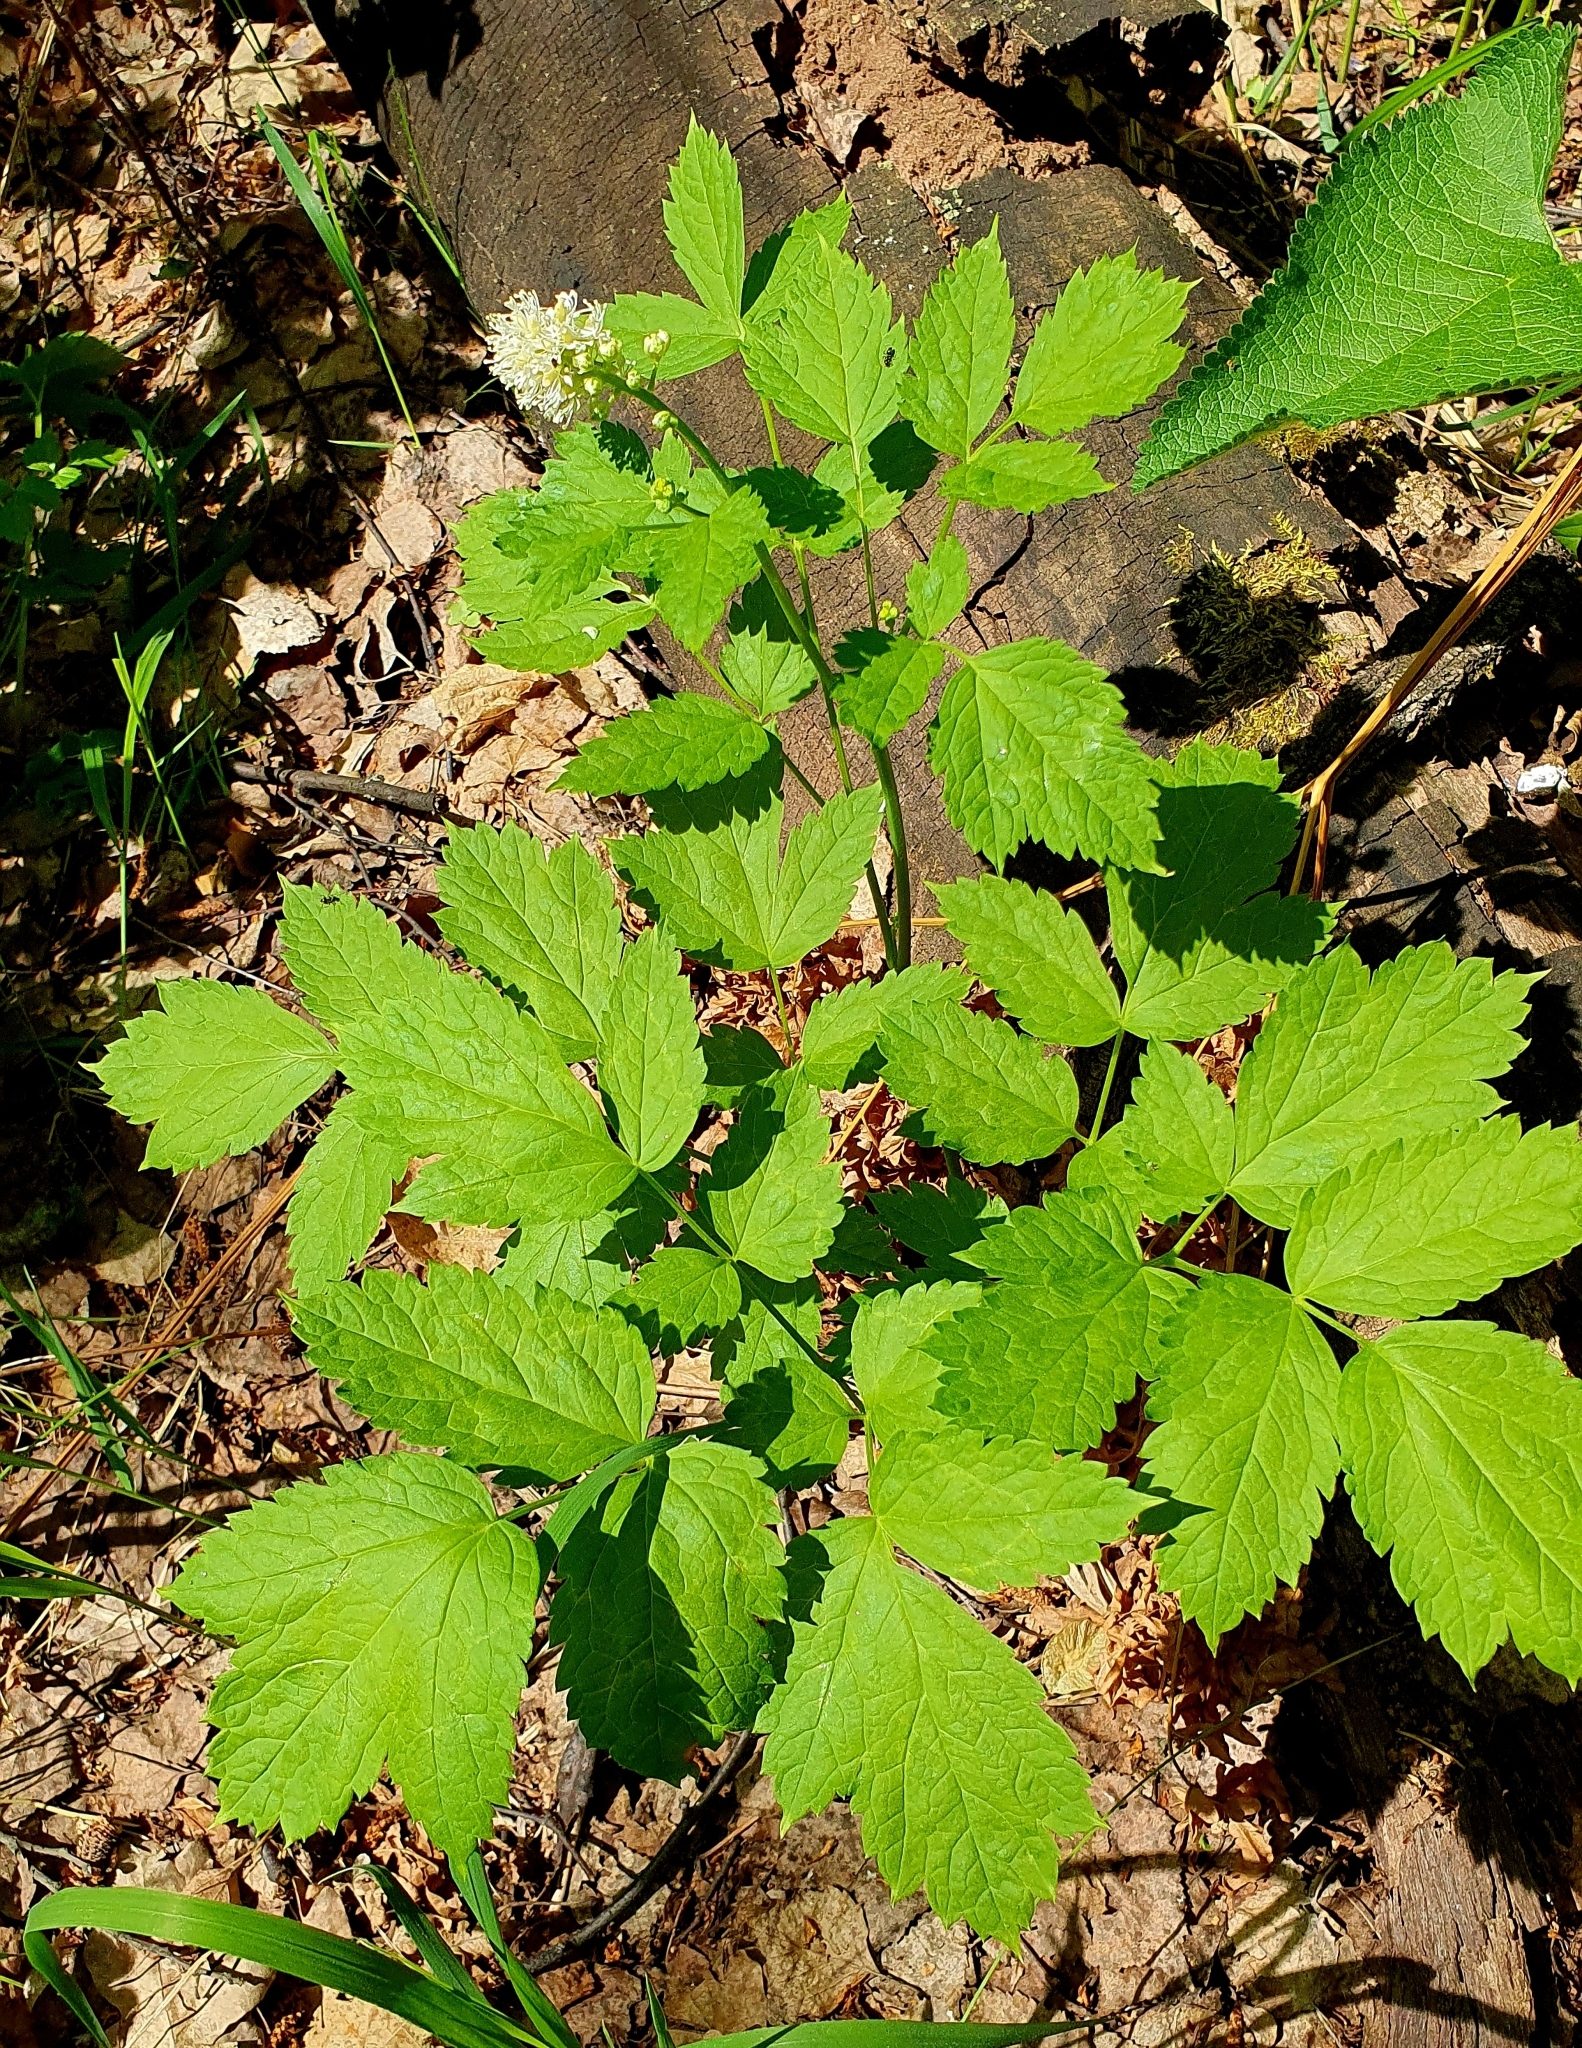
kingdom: Plantae
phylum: Tracheophyta
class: Magnoliopsida
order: Ranunculales
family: Ranunculaceae
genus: Actaea
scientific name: Actaea spicata
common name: Baneberry
